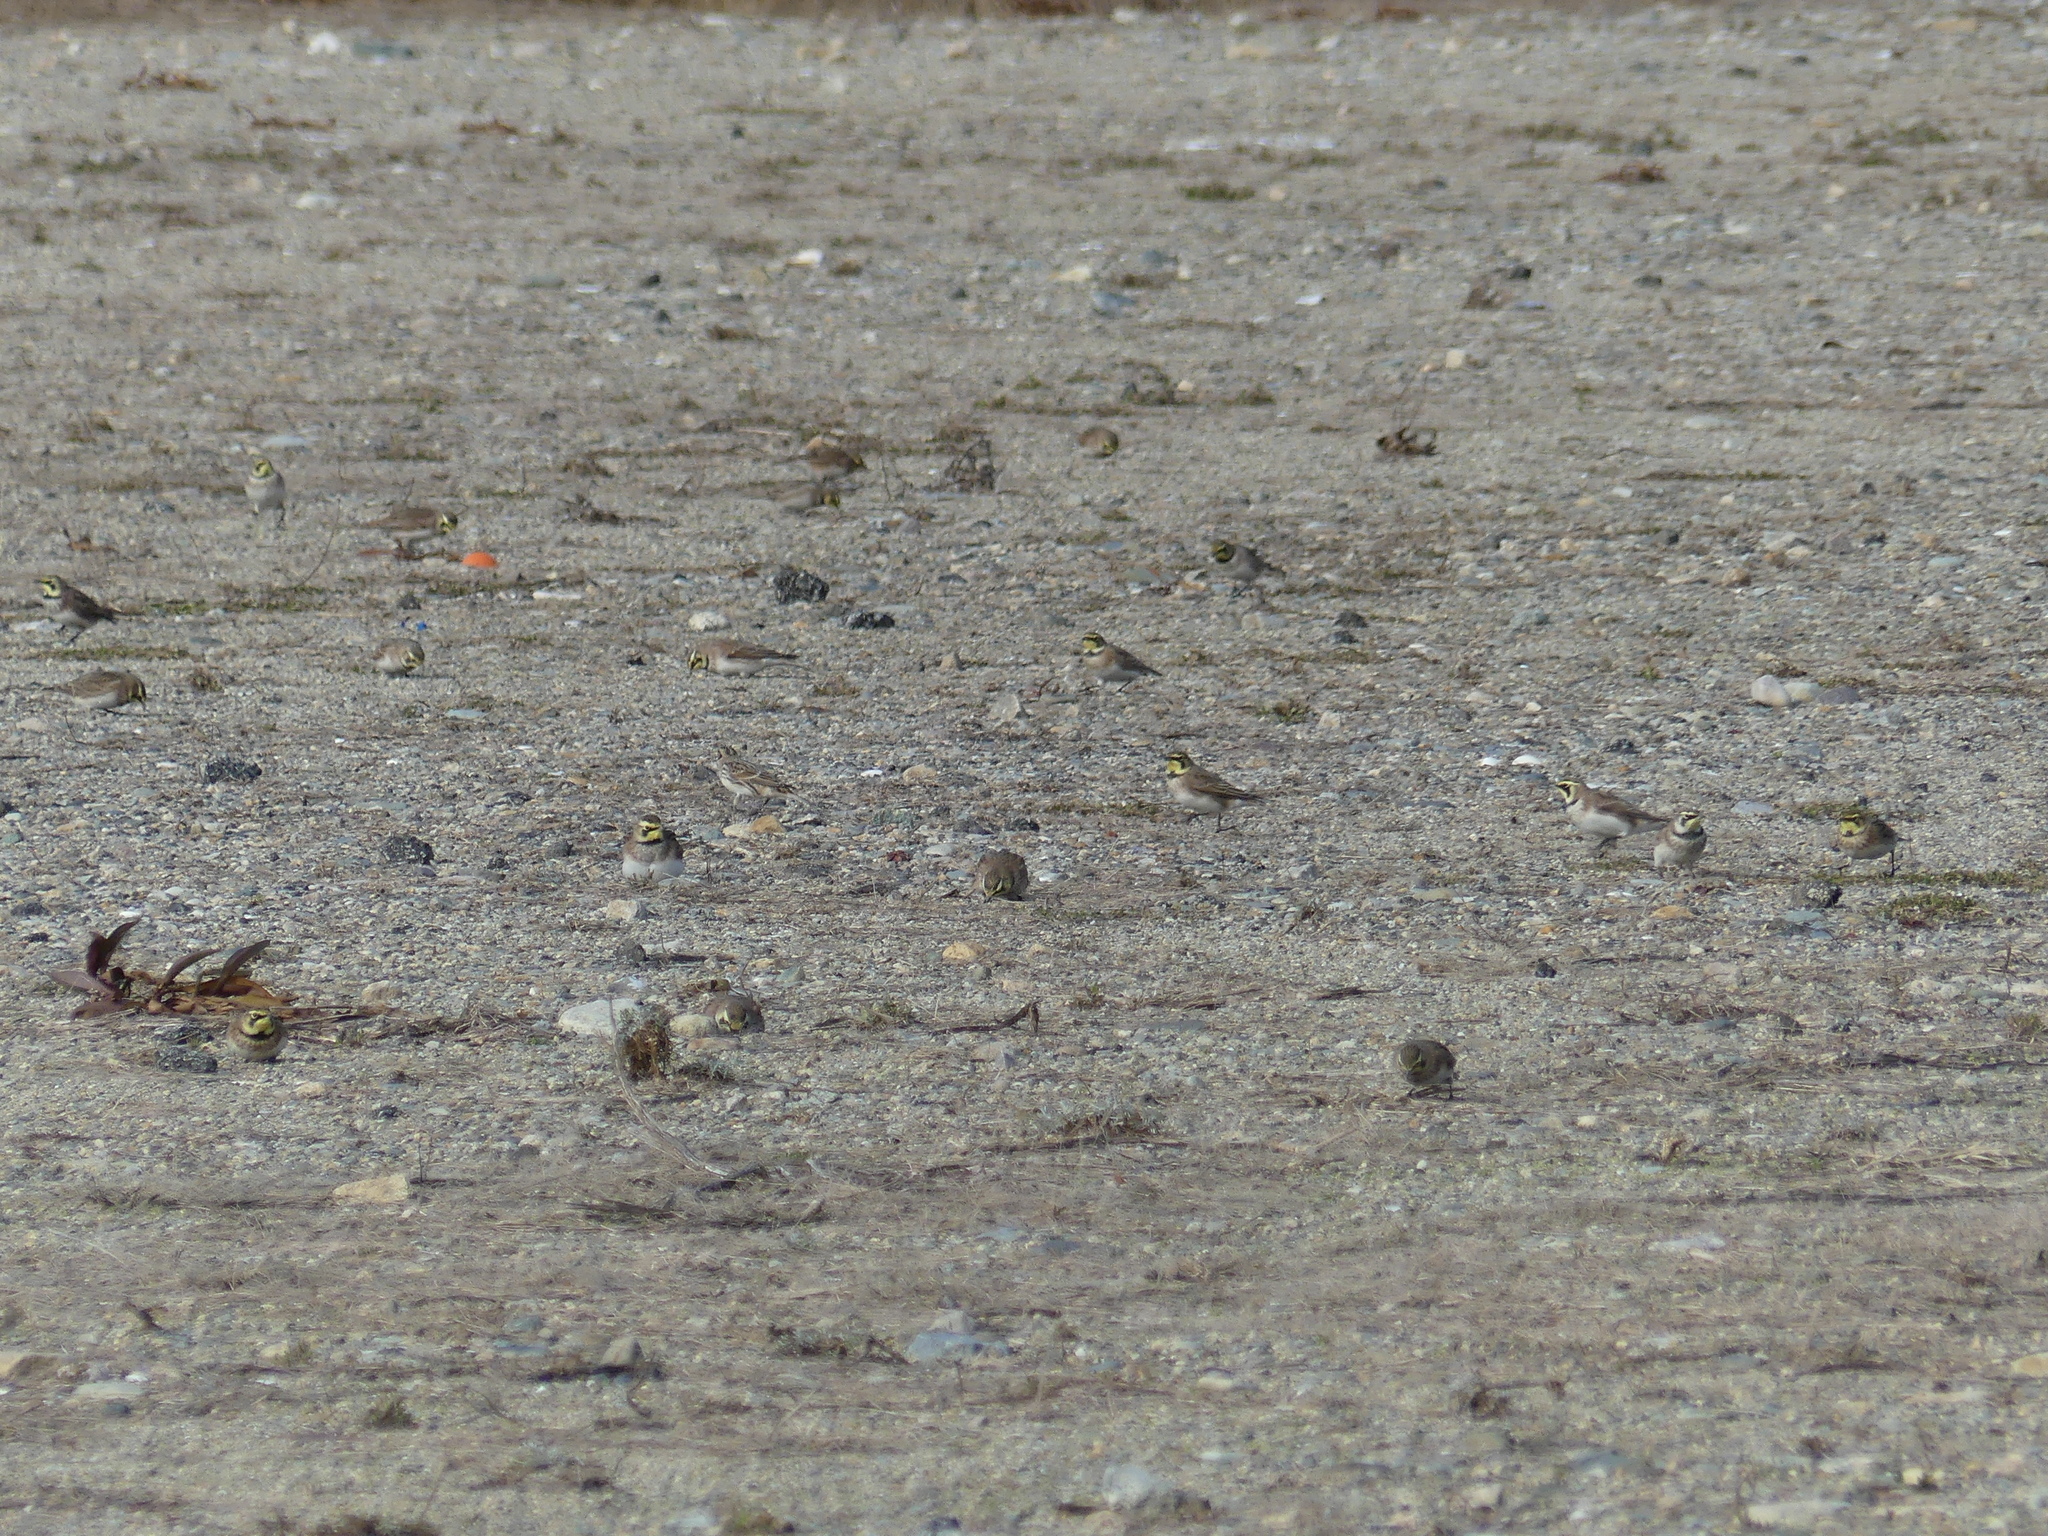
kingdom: Animalia
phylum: Chordata
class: Aves
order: Passeriformes
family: Alaudidae
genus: Eremophila
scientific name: Eremophila alpestris
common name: Horned lark
